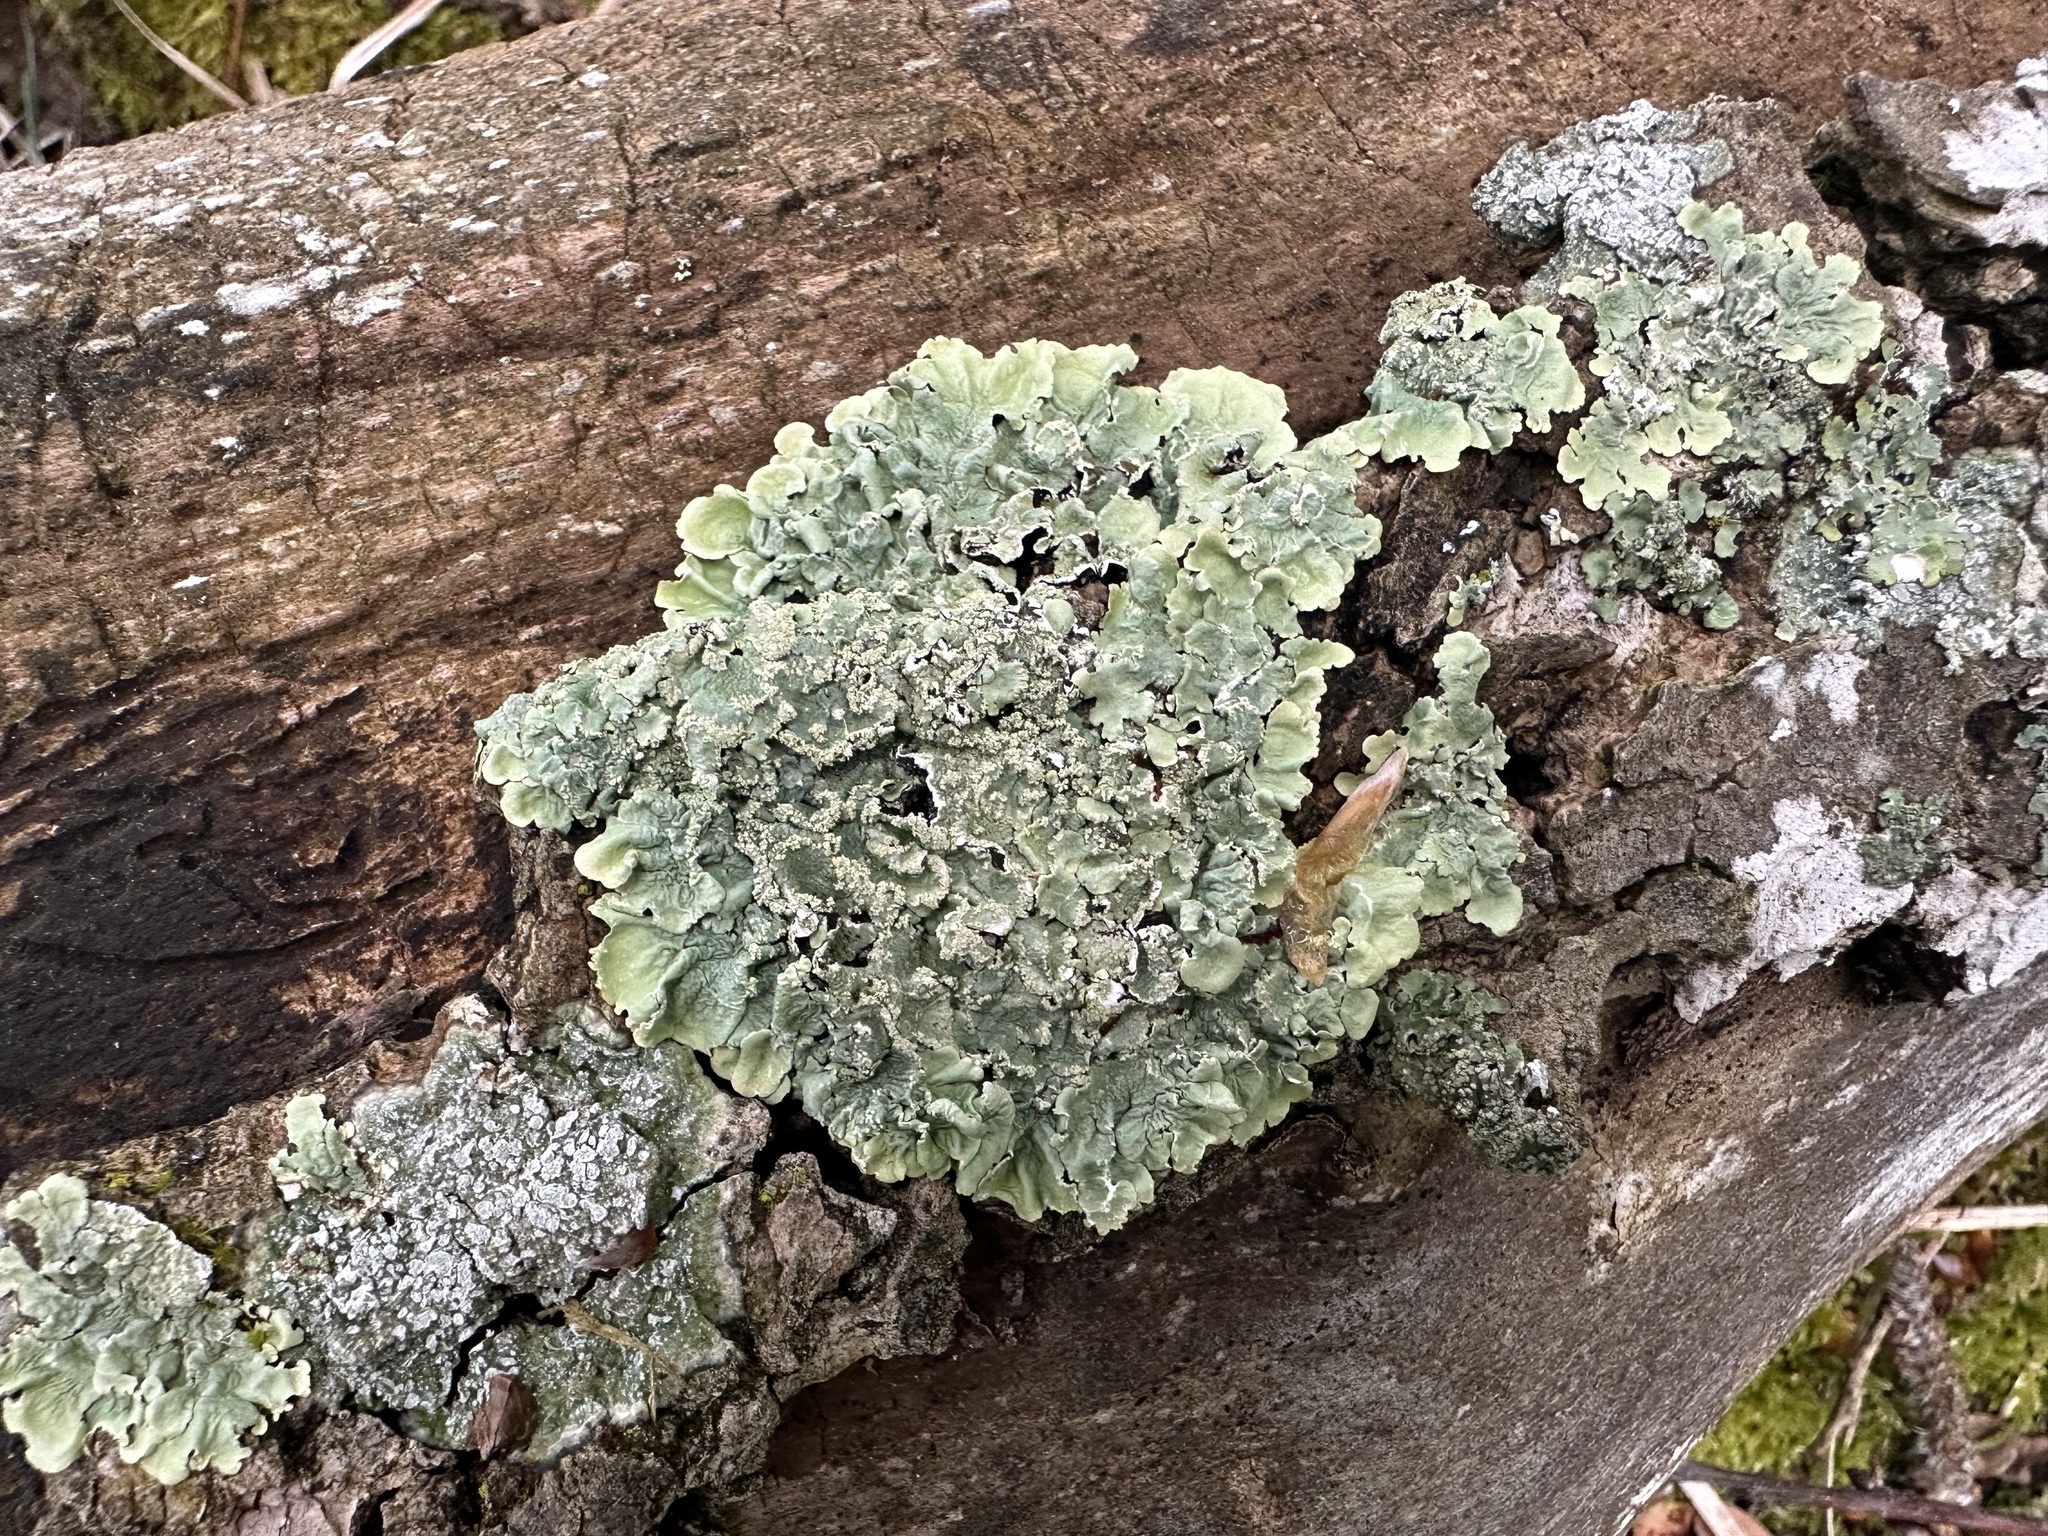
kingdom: Fungi
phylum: Ascomycota
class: Lecanoromycetes
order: Lecanorales
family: Parmeliaceae
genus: Flavoparmelia
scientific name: Flavoparmelia caperata
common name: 40-mile per hour lichen
